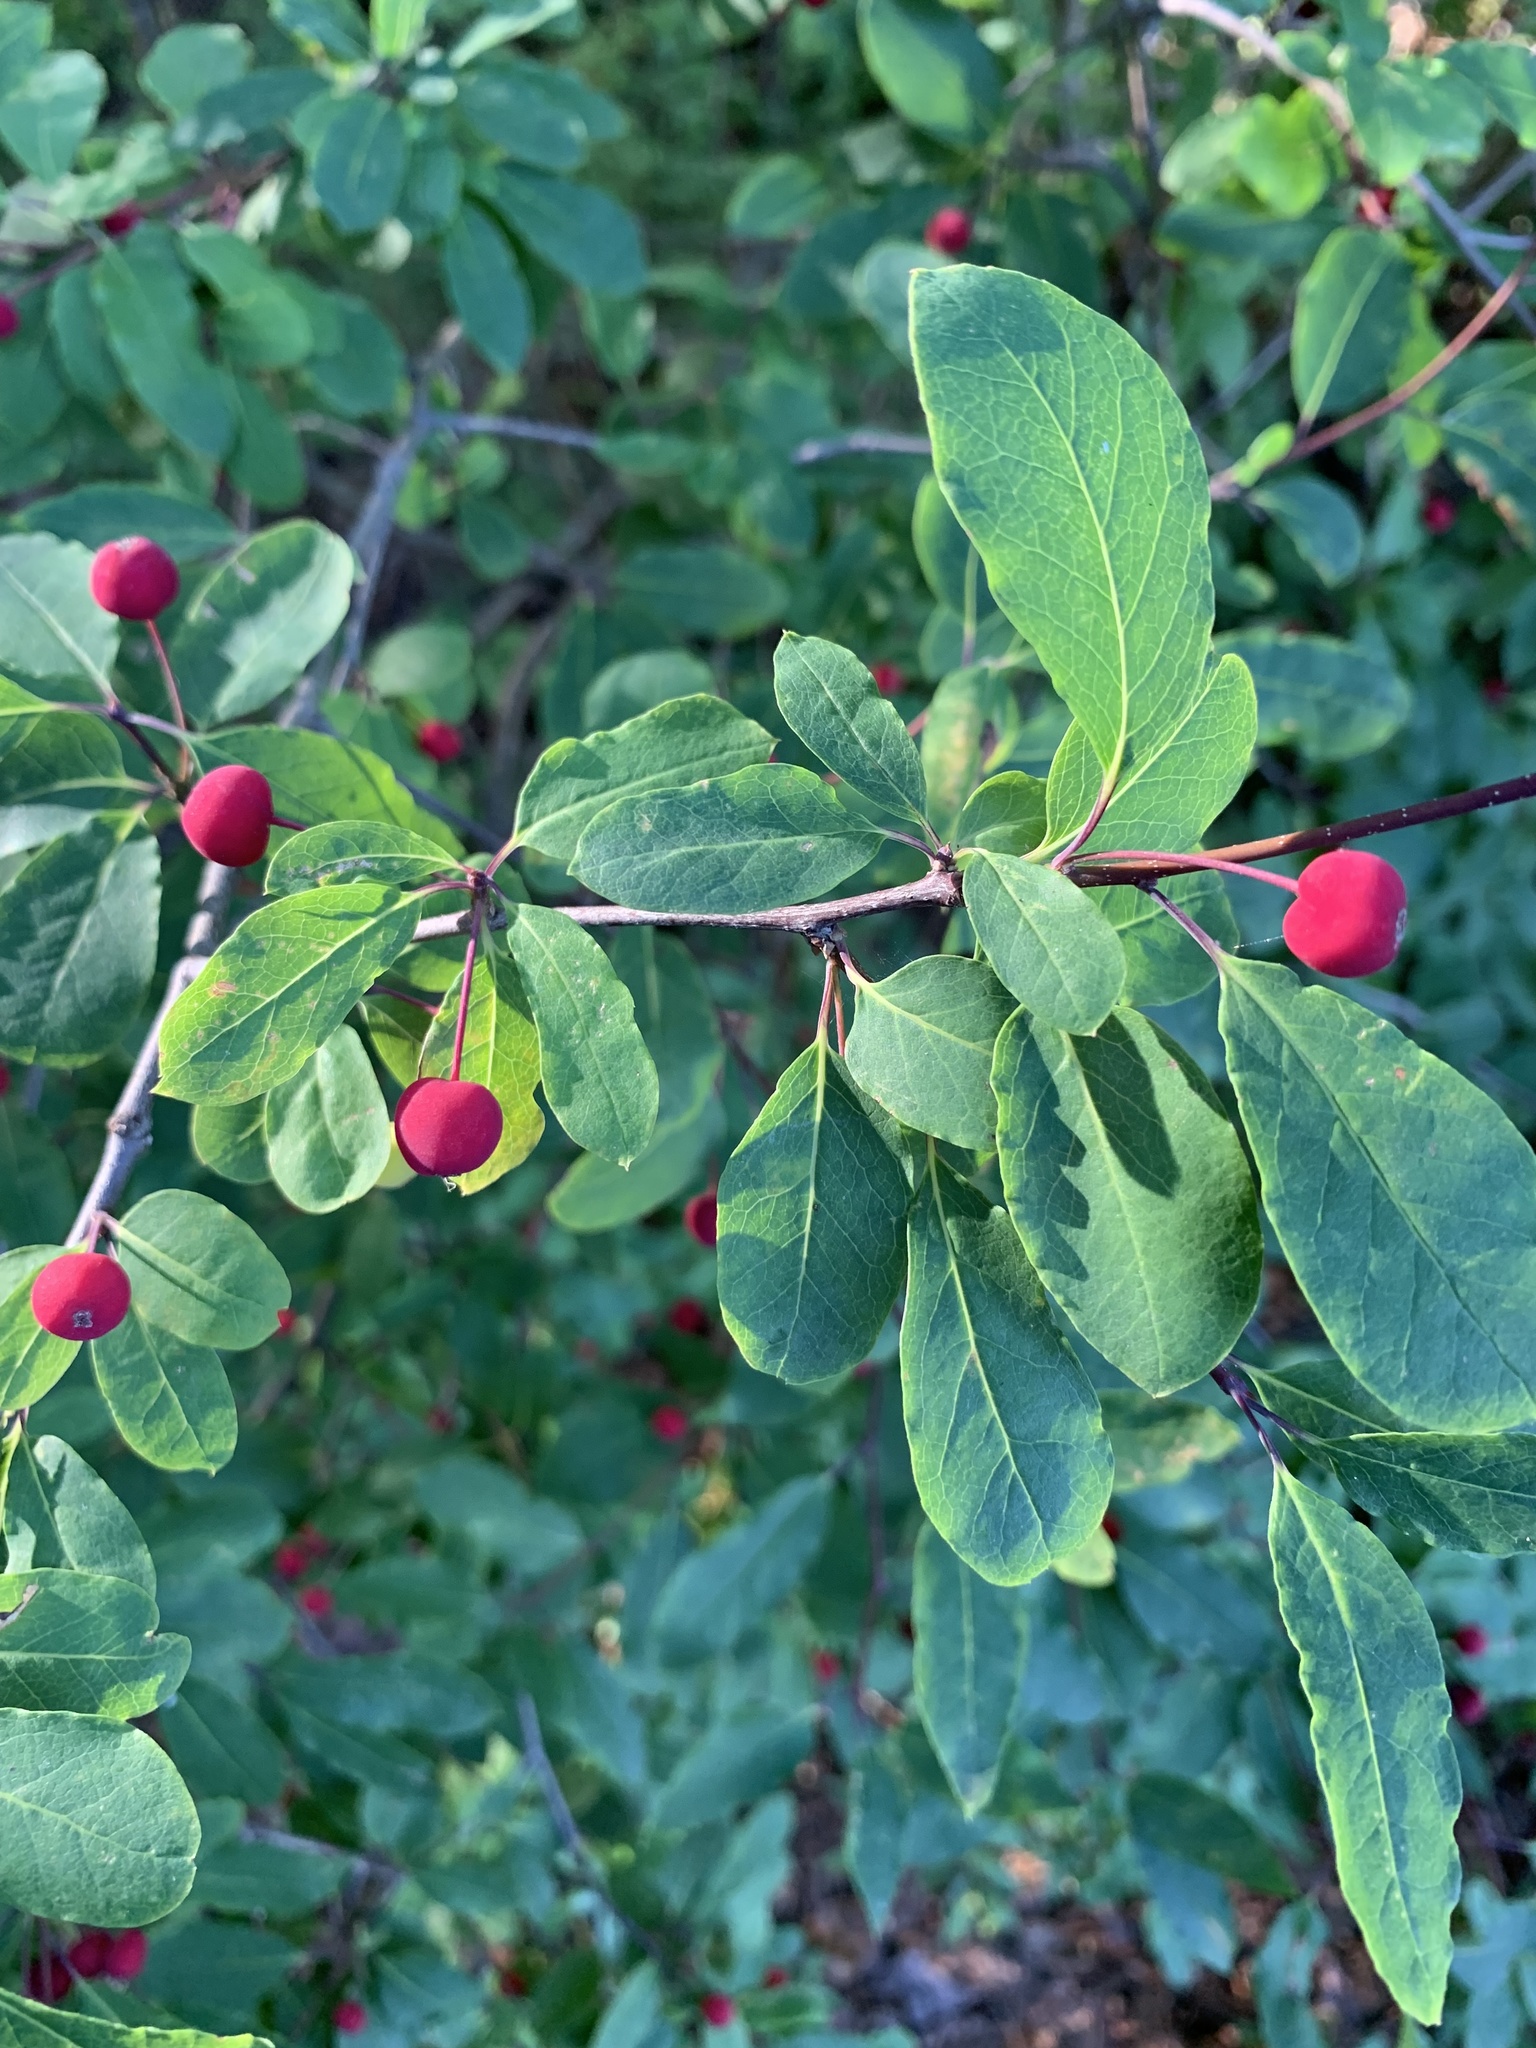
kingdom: Plantae
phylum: Tracheophyta
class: Magnoliopsida
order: Aquifoliales
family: Aquifoliaceae
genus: Ilex
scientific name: Ilex mucronata
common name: Catberry
